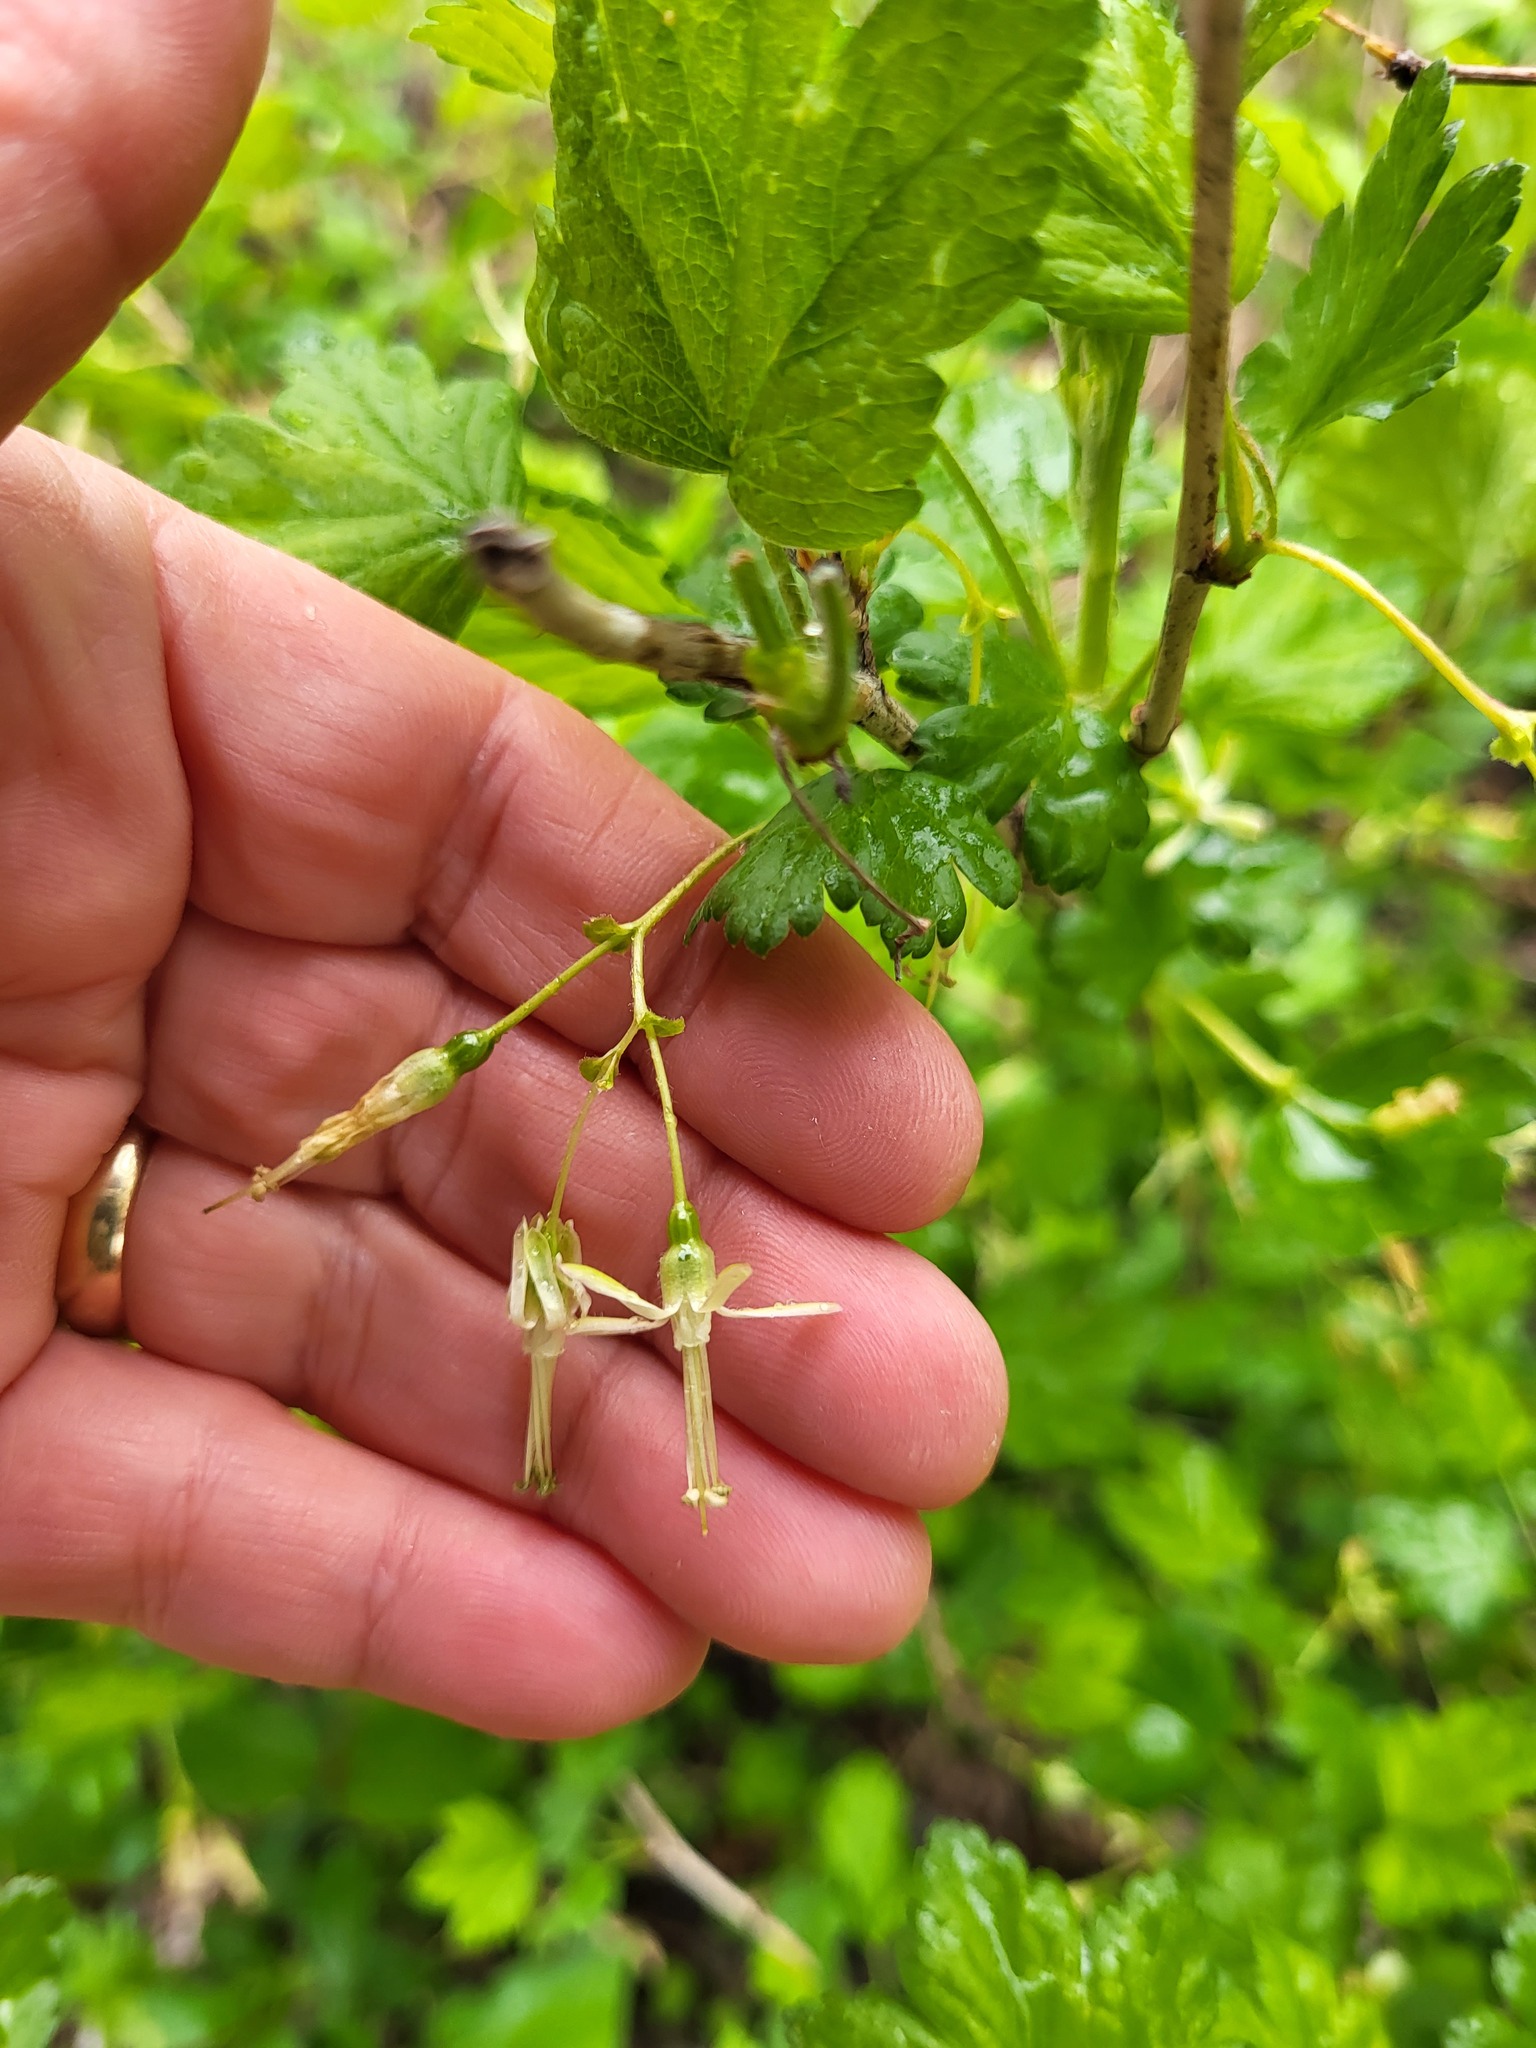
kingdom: Plantae
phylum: Tracheophyta
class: Magnoliopsida
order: Saxifragales
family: Grossulariaceae
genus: Ribes
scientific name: Ribes missouriense
